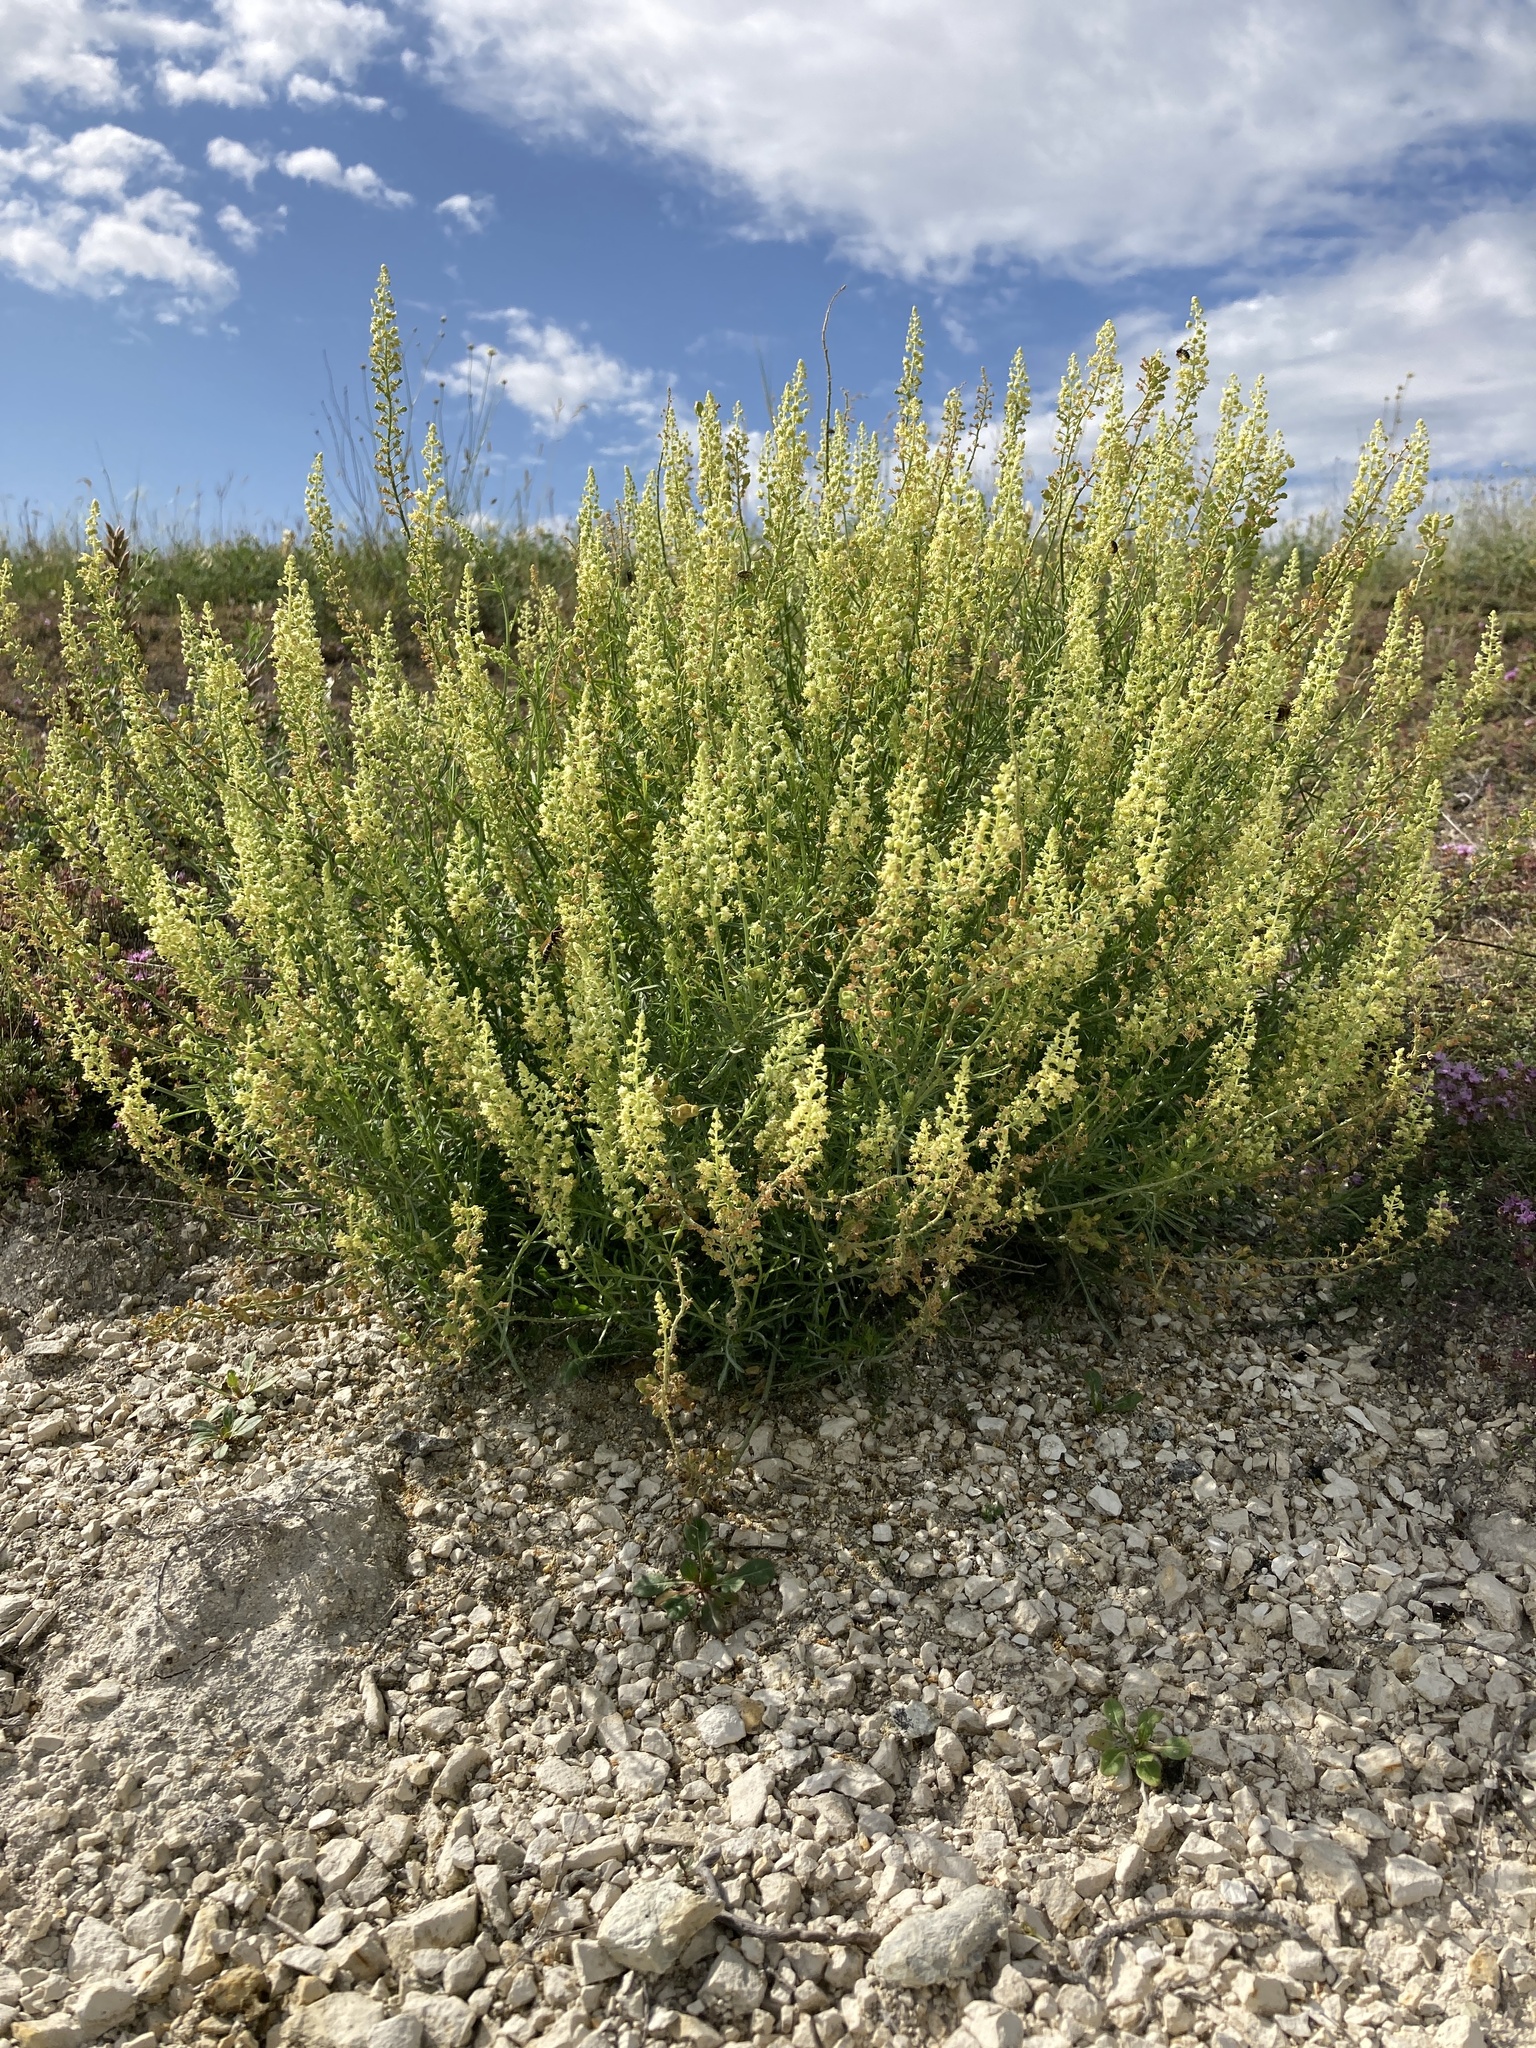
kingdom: Plantae
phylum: Tracheophyta
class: Magnoliopsida
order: Brassicales
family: Resedaceae
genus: Reseda
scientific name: Reseda lutea
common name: Wild mignonette
